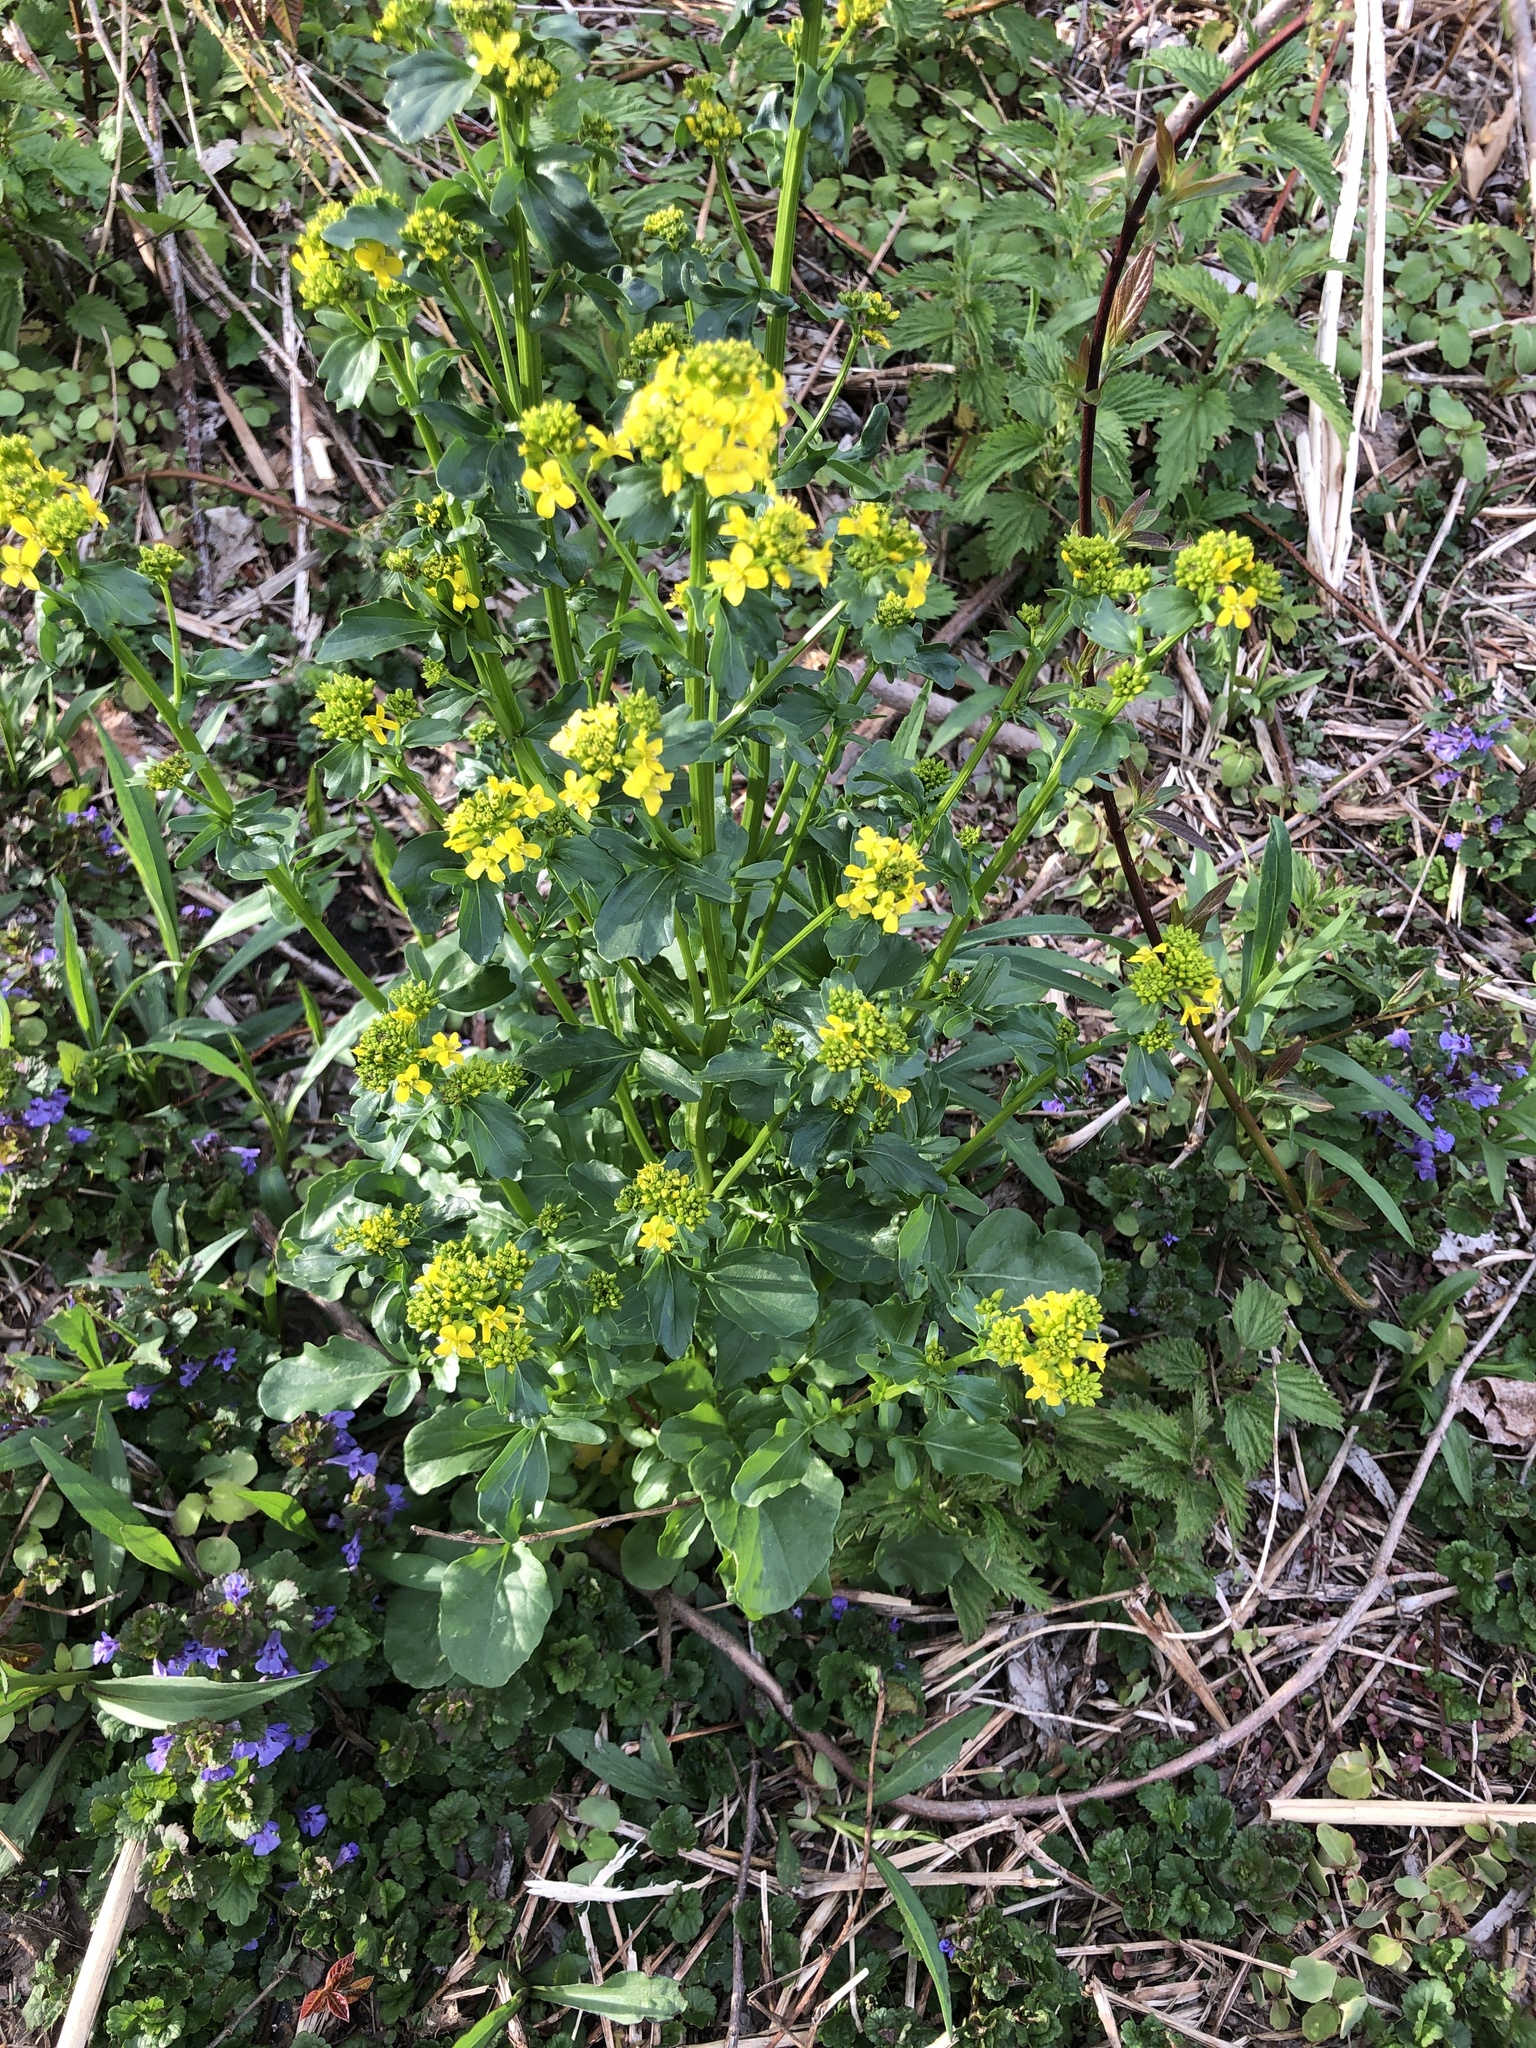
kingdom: Plantae
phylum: Tracheophyta
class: Magnoliopsida
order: Brassicales
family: Brassicaceae
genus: Barbarea
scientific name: Barbarea vulgaris
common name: Cressy-greens
